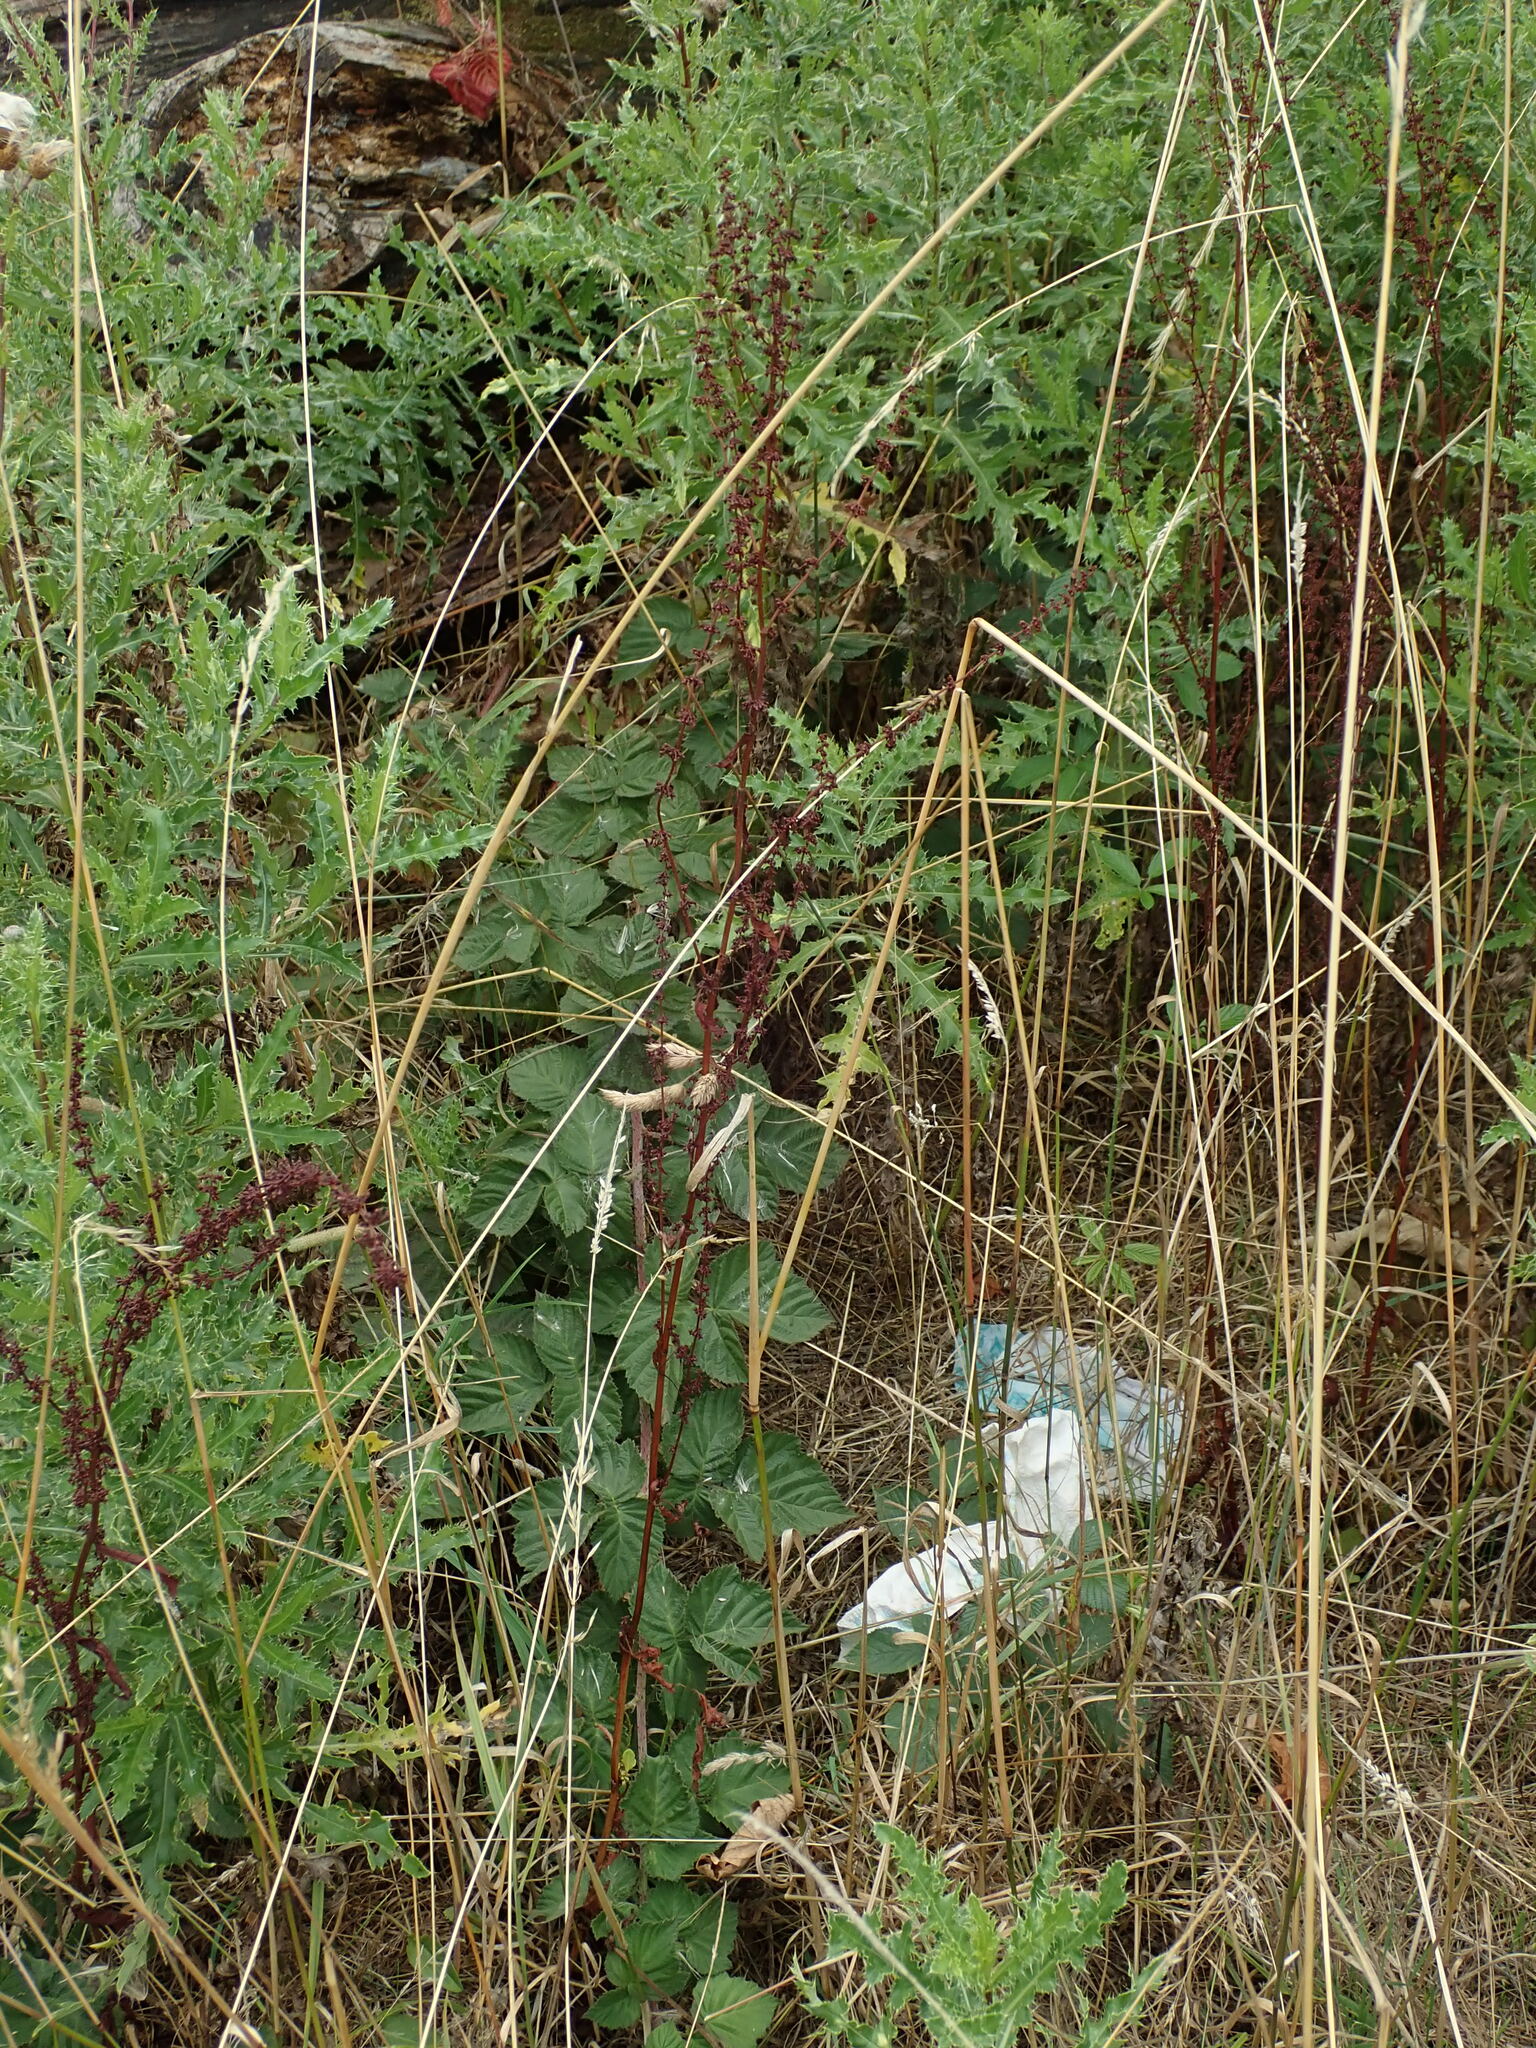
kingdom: Plantae
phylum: Tracheophyta
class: Magnoliopsida
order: Caryophyllales
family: Polygonaceae
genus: Rumex
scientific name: Rumex sanguineus
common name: Wood dock
